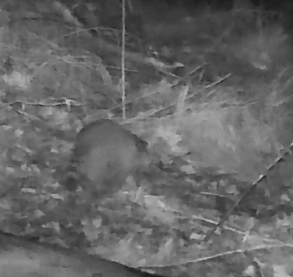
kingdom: Animalia
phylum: Chordata
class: Mammalia
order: Carnivora
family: Procyonidae
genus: Procyon
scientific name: Procyon lotor
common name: Raccoon
